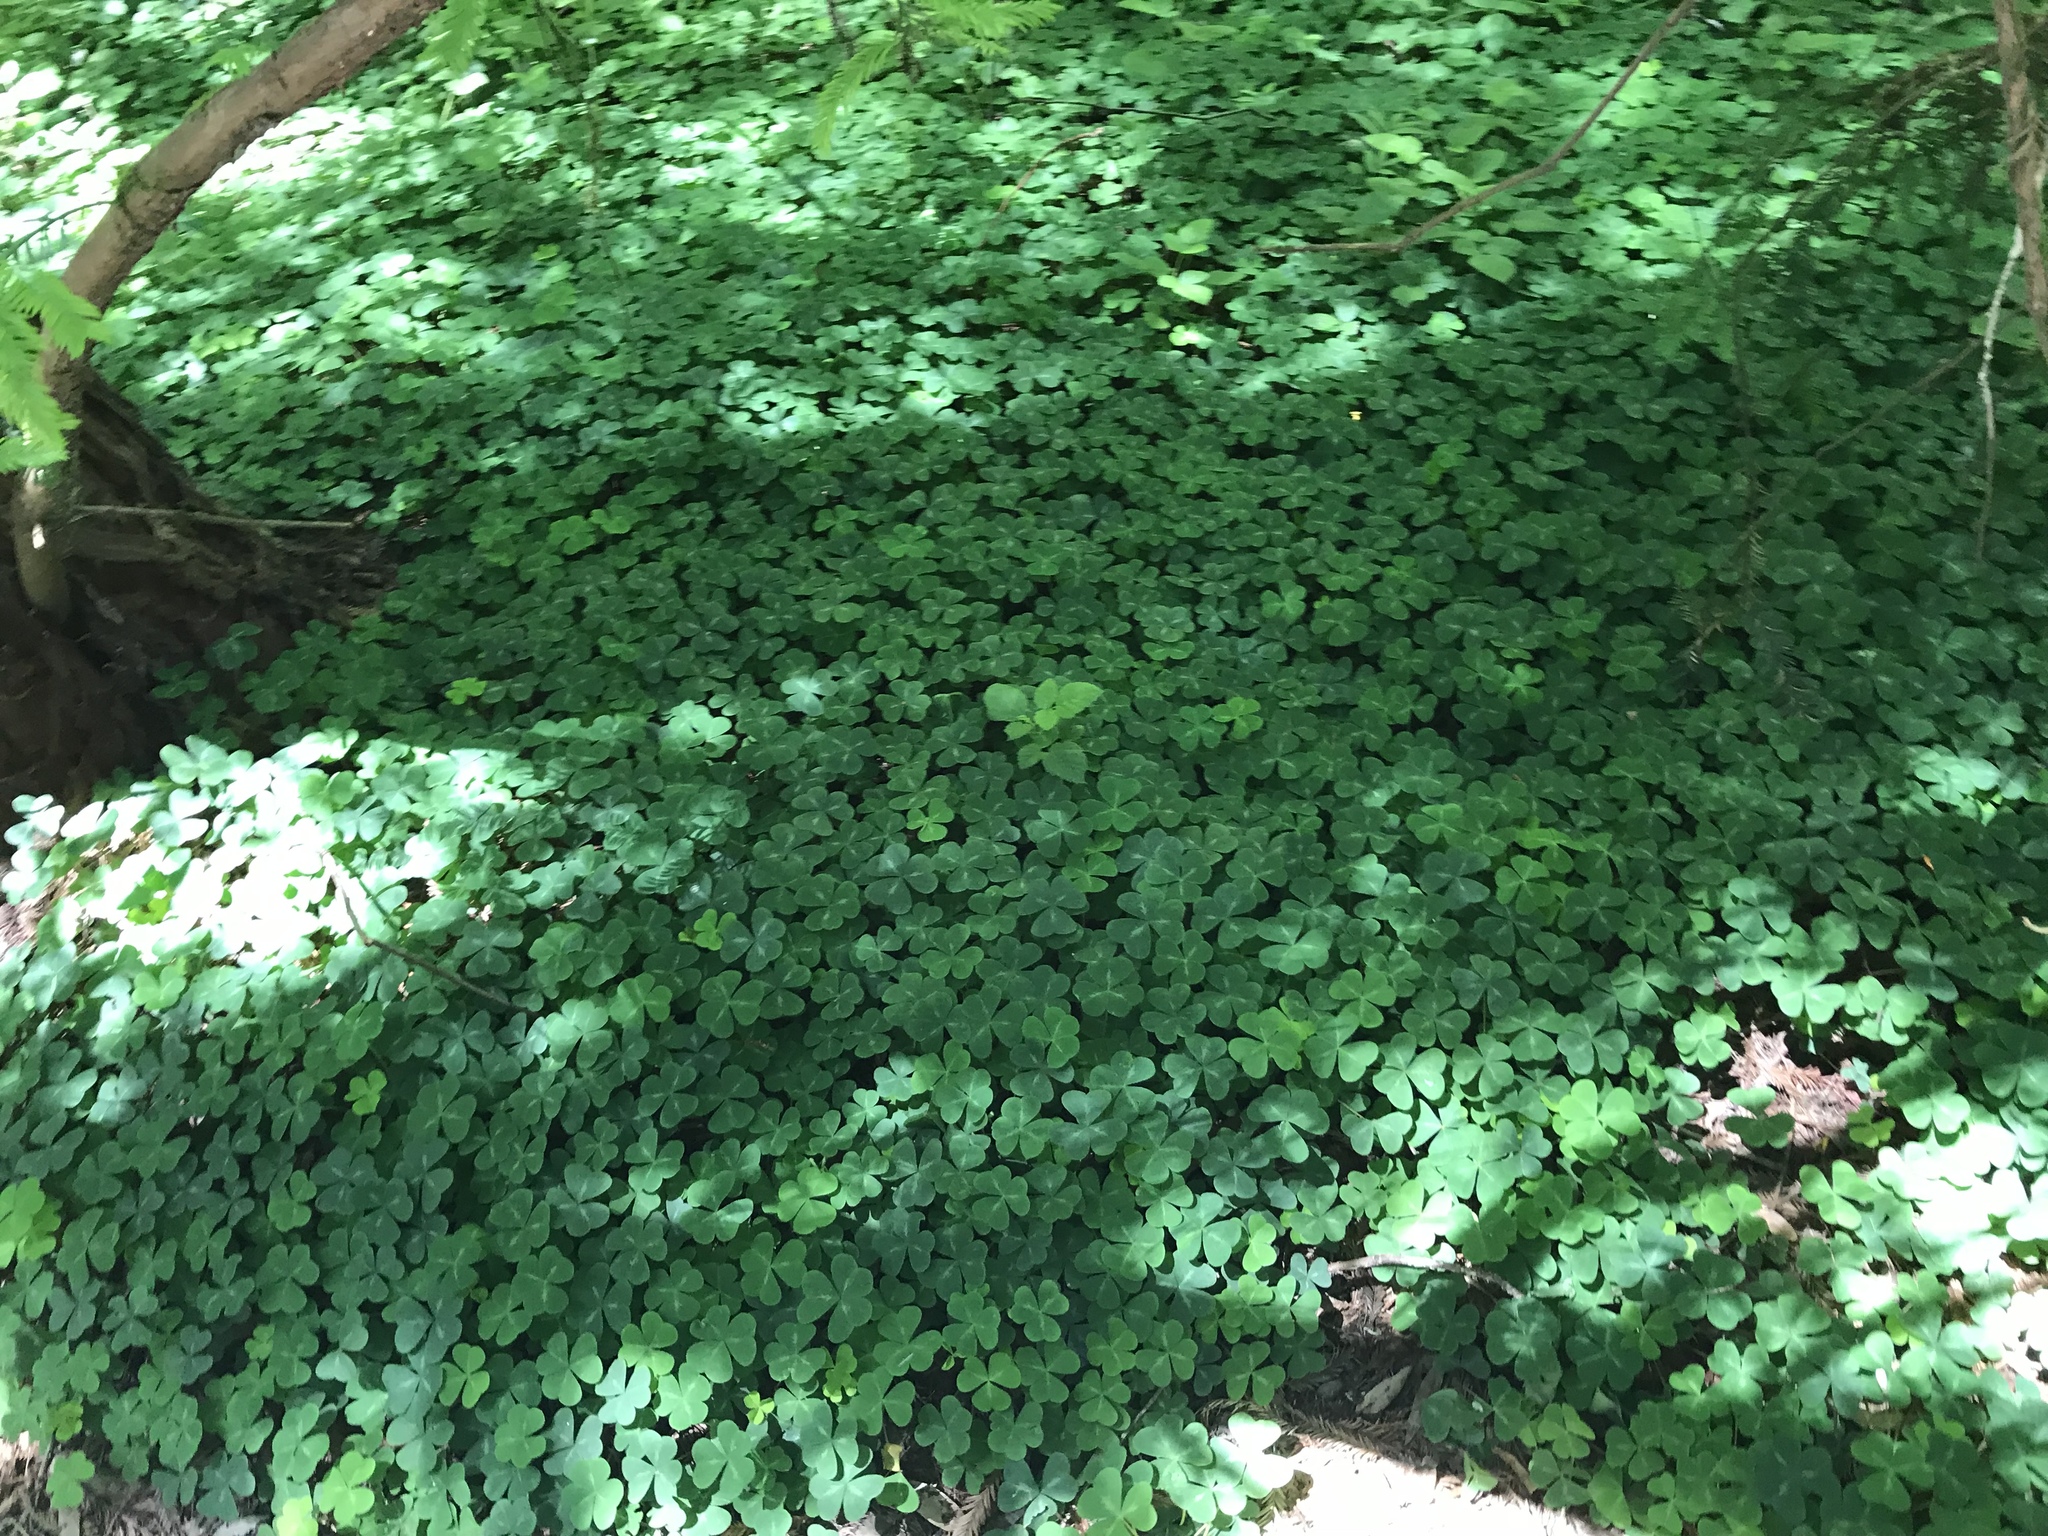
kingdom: Plantae
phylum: Tracheophyta
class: Magnoliopsida
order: Oxalidales
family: Oxalidaceae
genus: Oxalis
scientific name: Oxalis oregana
